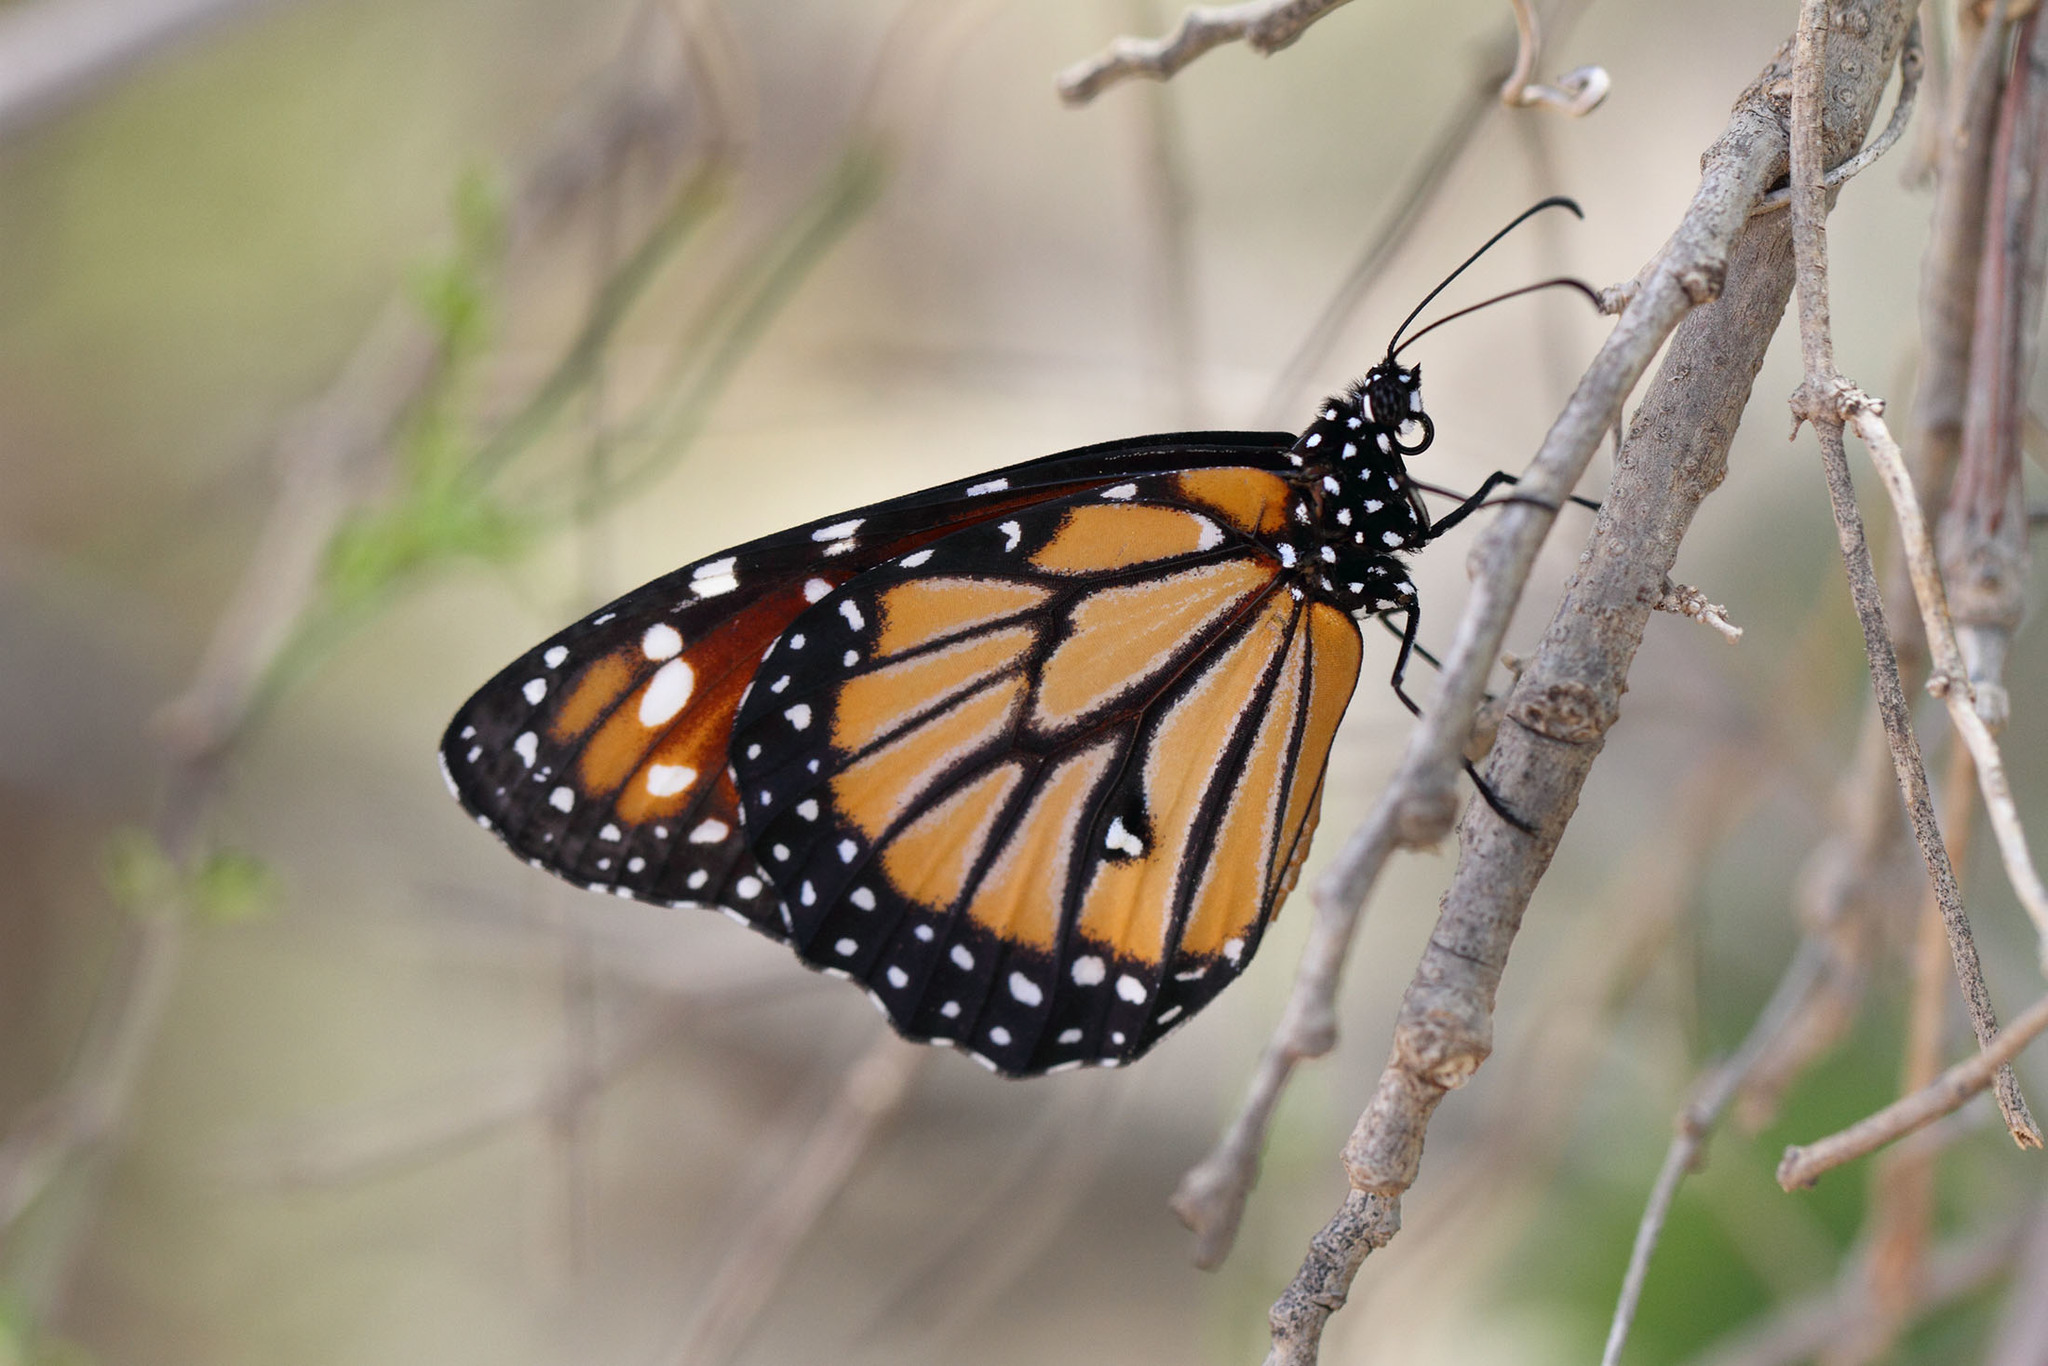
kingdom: Animalia
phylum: Arthropoda
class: Insecta
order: Lepidoptera
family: Nymphalidae
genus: Danaus
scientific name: Danaus gilippus
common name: Queen
